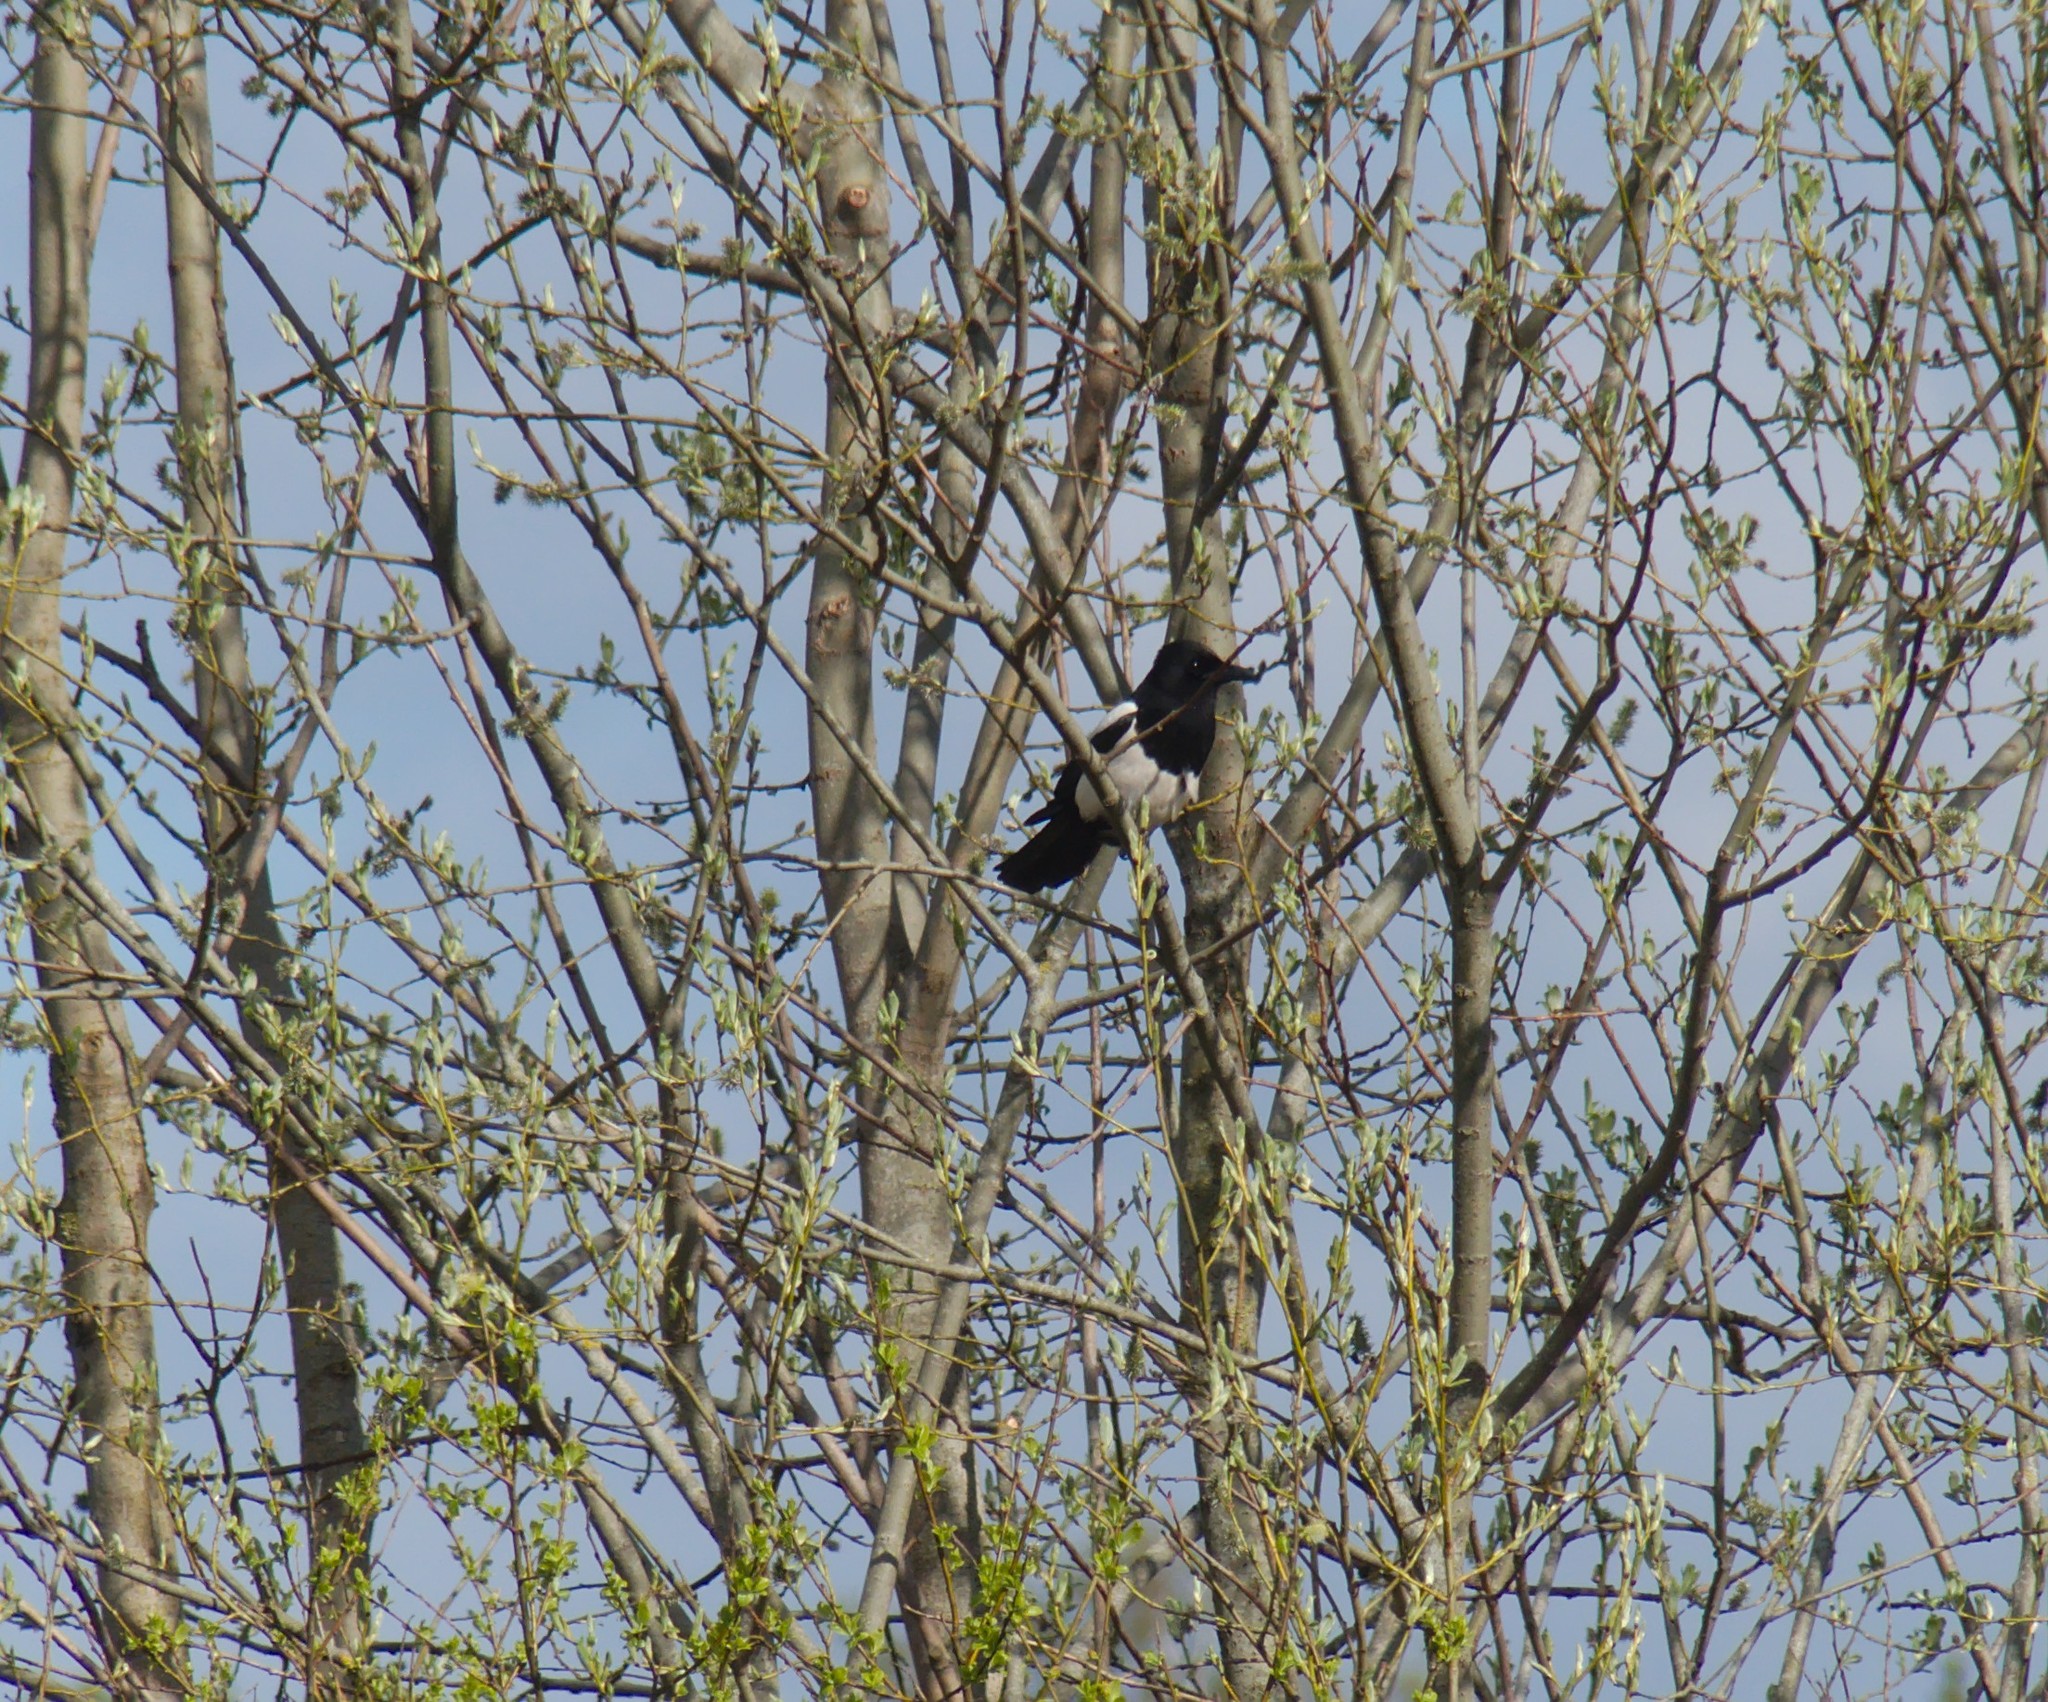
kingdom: Animalia
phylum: Chordata
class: Aves
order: Passeriformes
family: Corvidae
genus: Pica
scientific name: Pica pica
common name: Eurasian magpie
